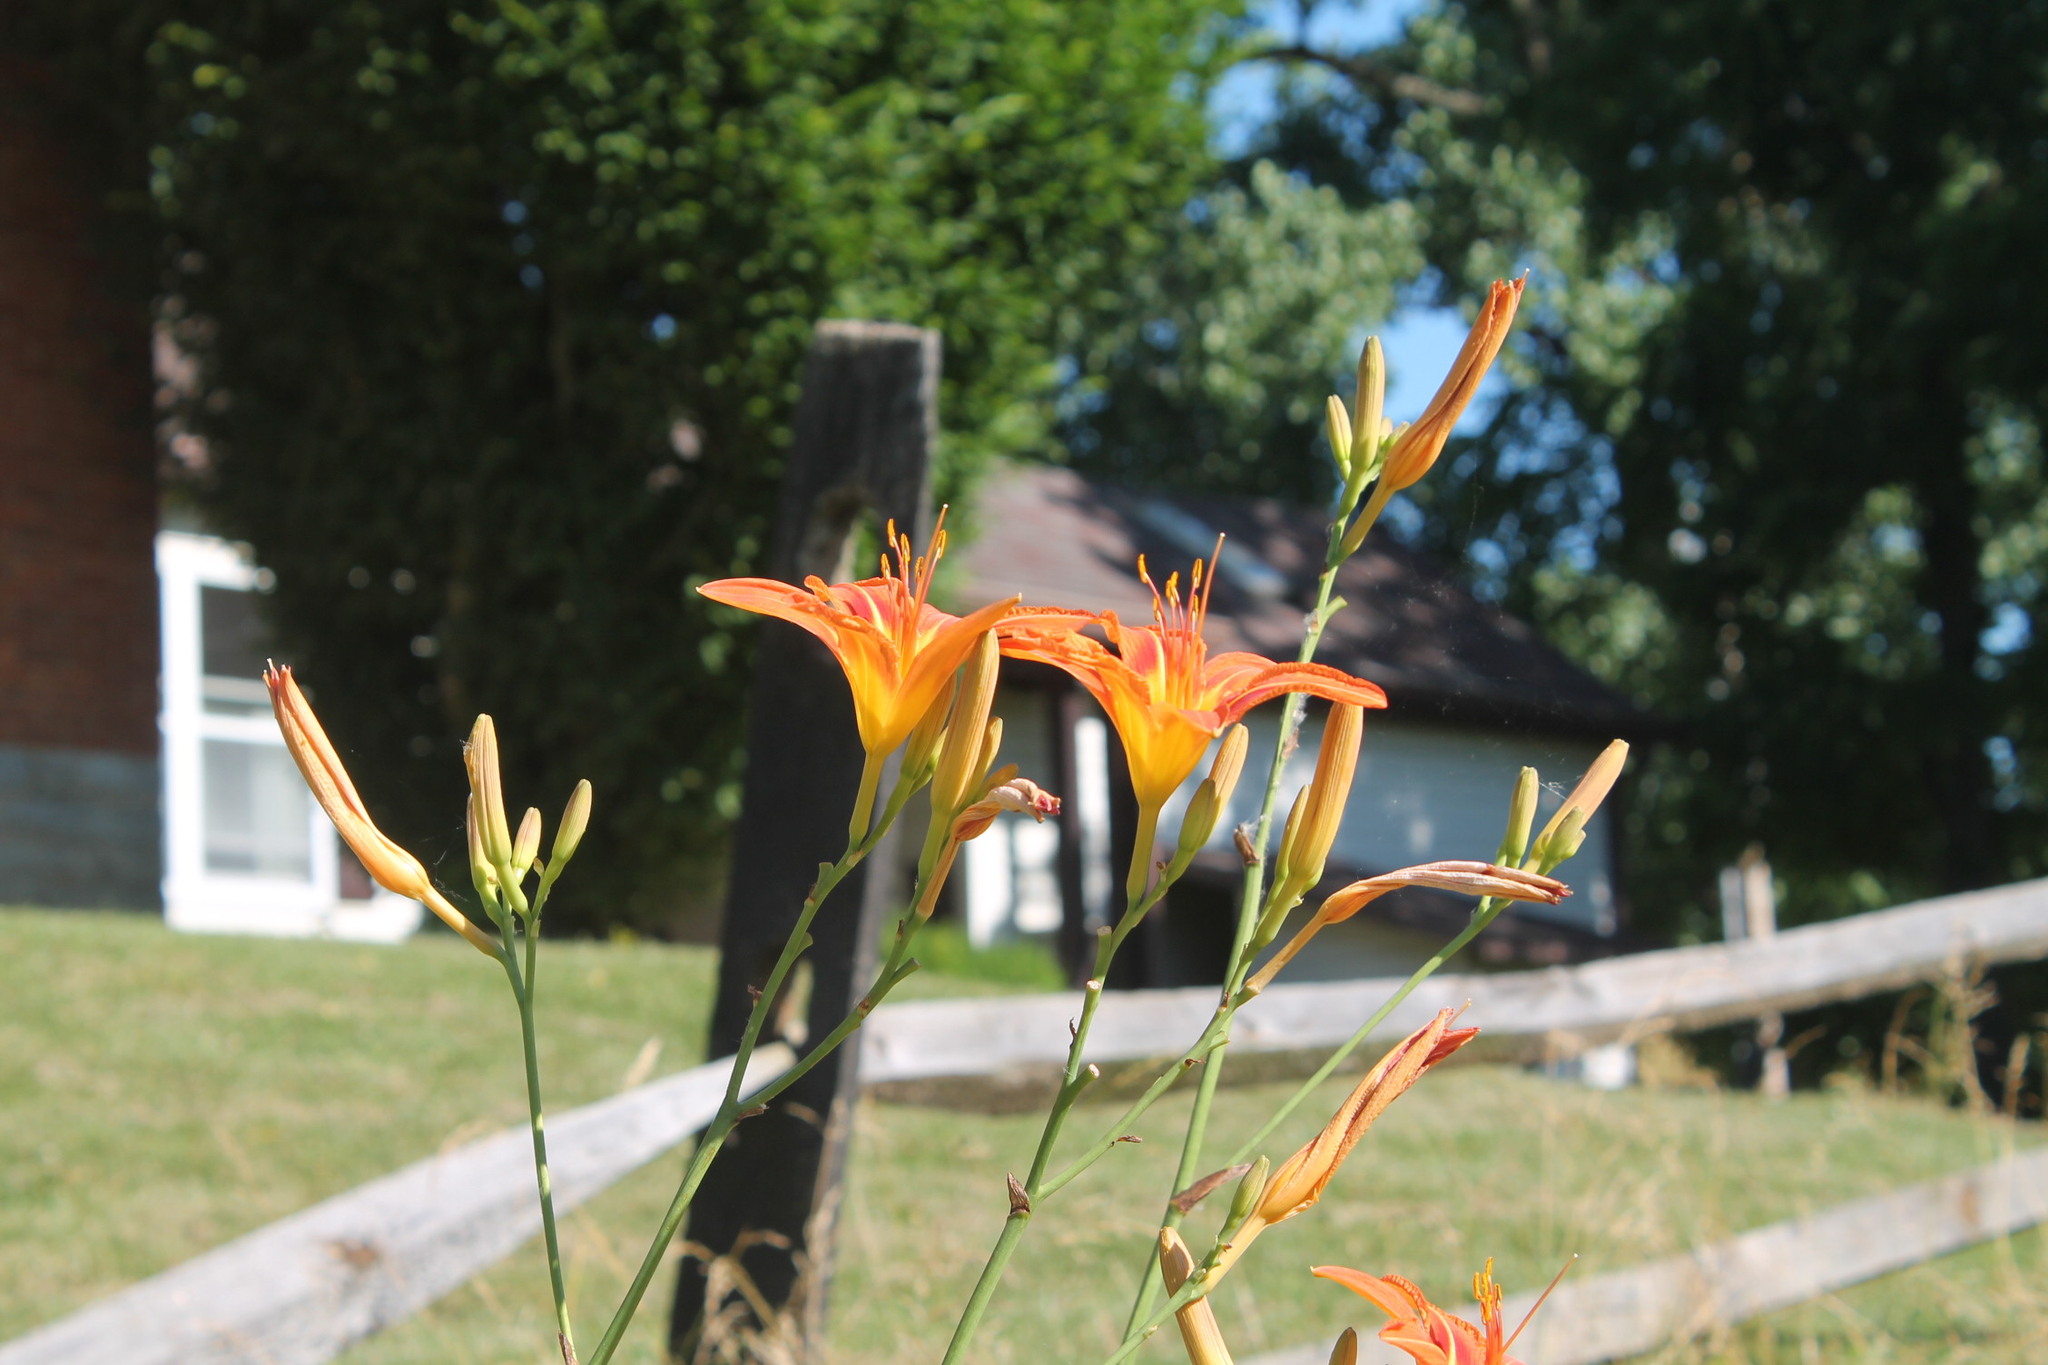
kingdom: Plantae
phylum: Tracheophyta
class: Liliopsida
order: Asparagales
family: Asphodelaceae
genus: Hemerocallis
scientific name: Hemerocallis fulva
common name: Orange day-lily
